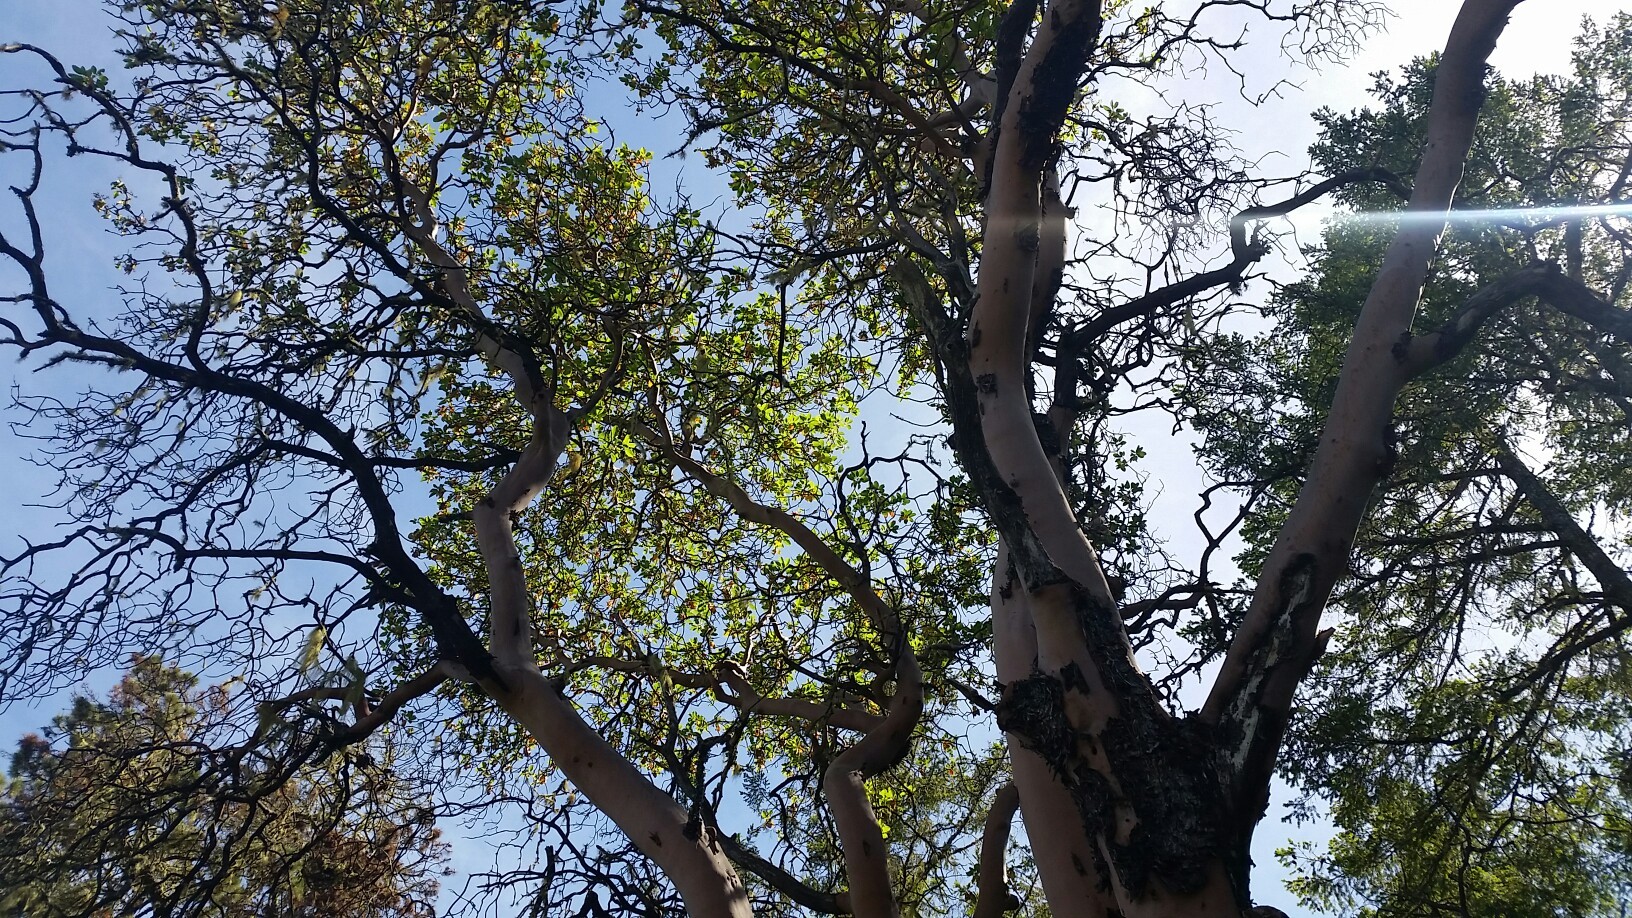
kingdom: Plantae
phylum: Tracheophyta
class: Magnoliopsida
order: Ericales
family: Ericaceae
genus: Arbutus
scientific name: Arbutus menziesii
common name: Pacific madrone
